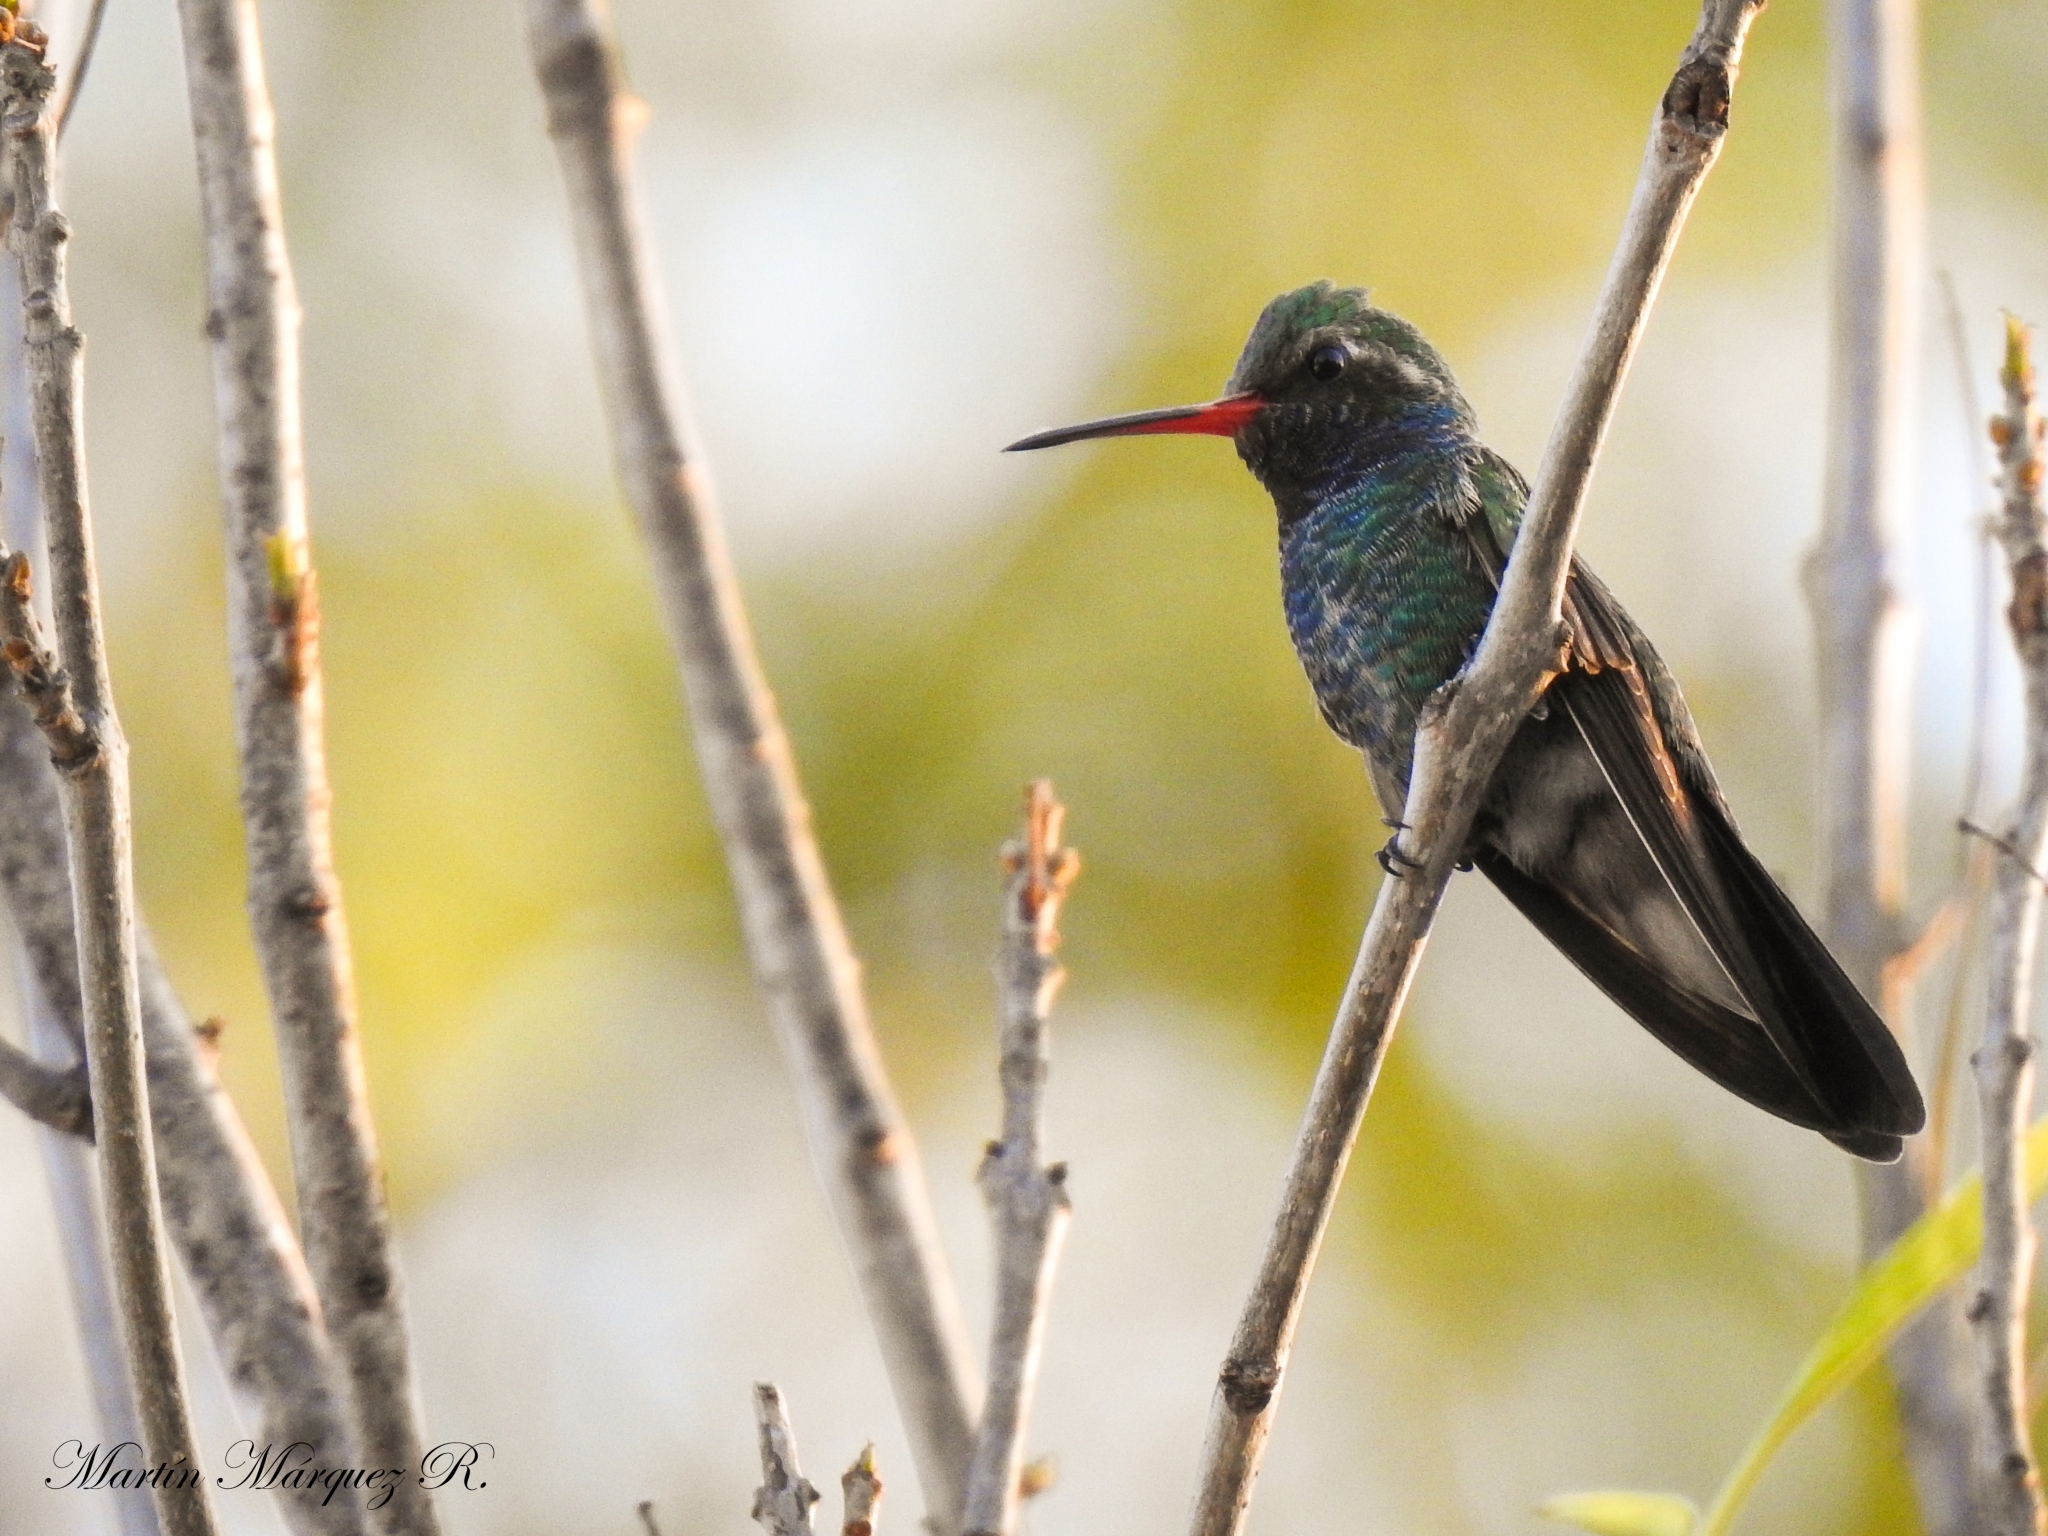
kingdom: Animalia
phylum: Chordata
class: Aves
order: Apodiformes
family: Trochilidae
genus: Cynanthus
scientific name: Cynanthus latirostris
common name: Broad-billed hummingbird
